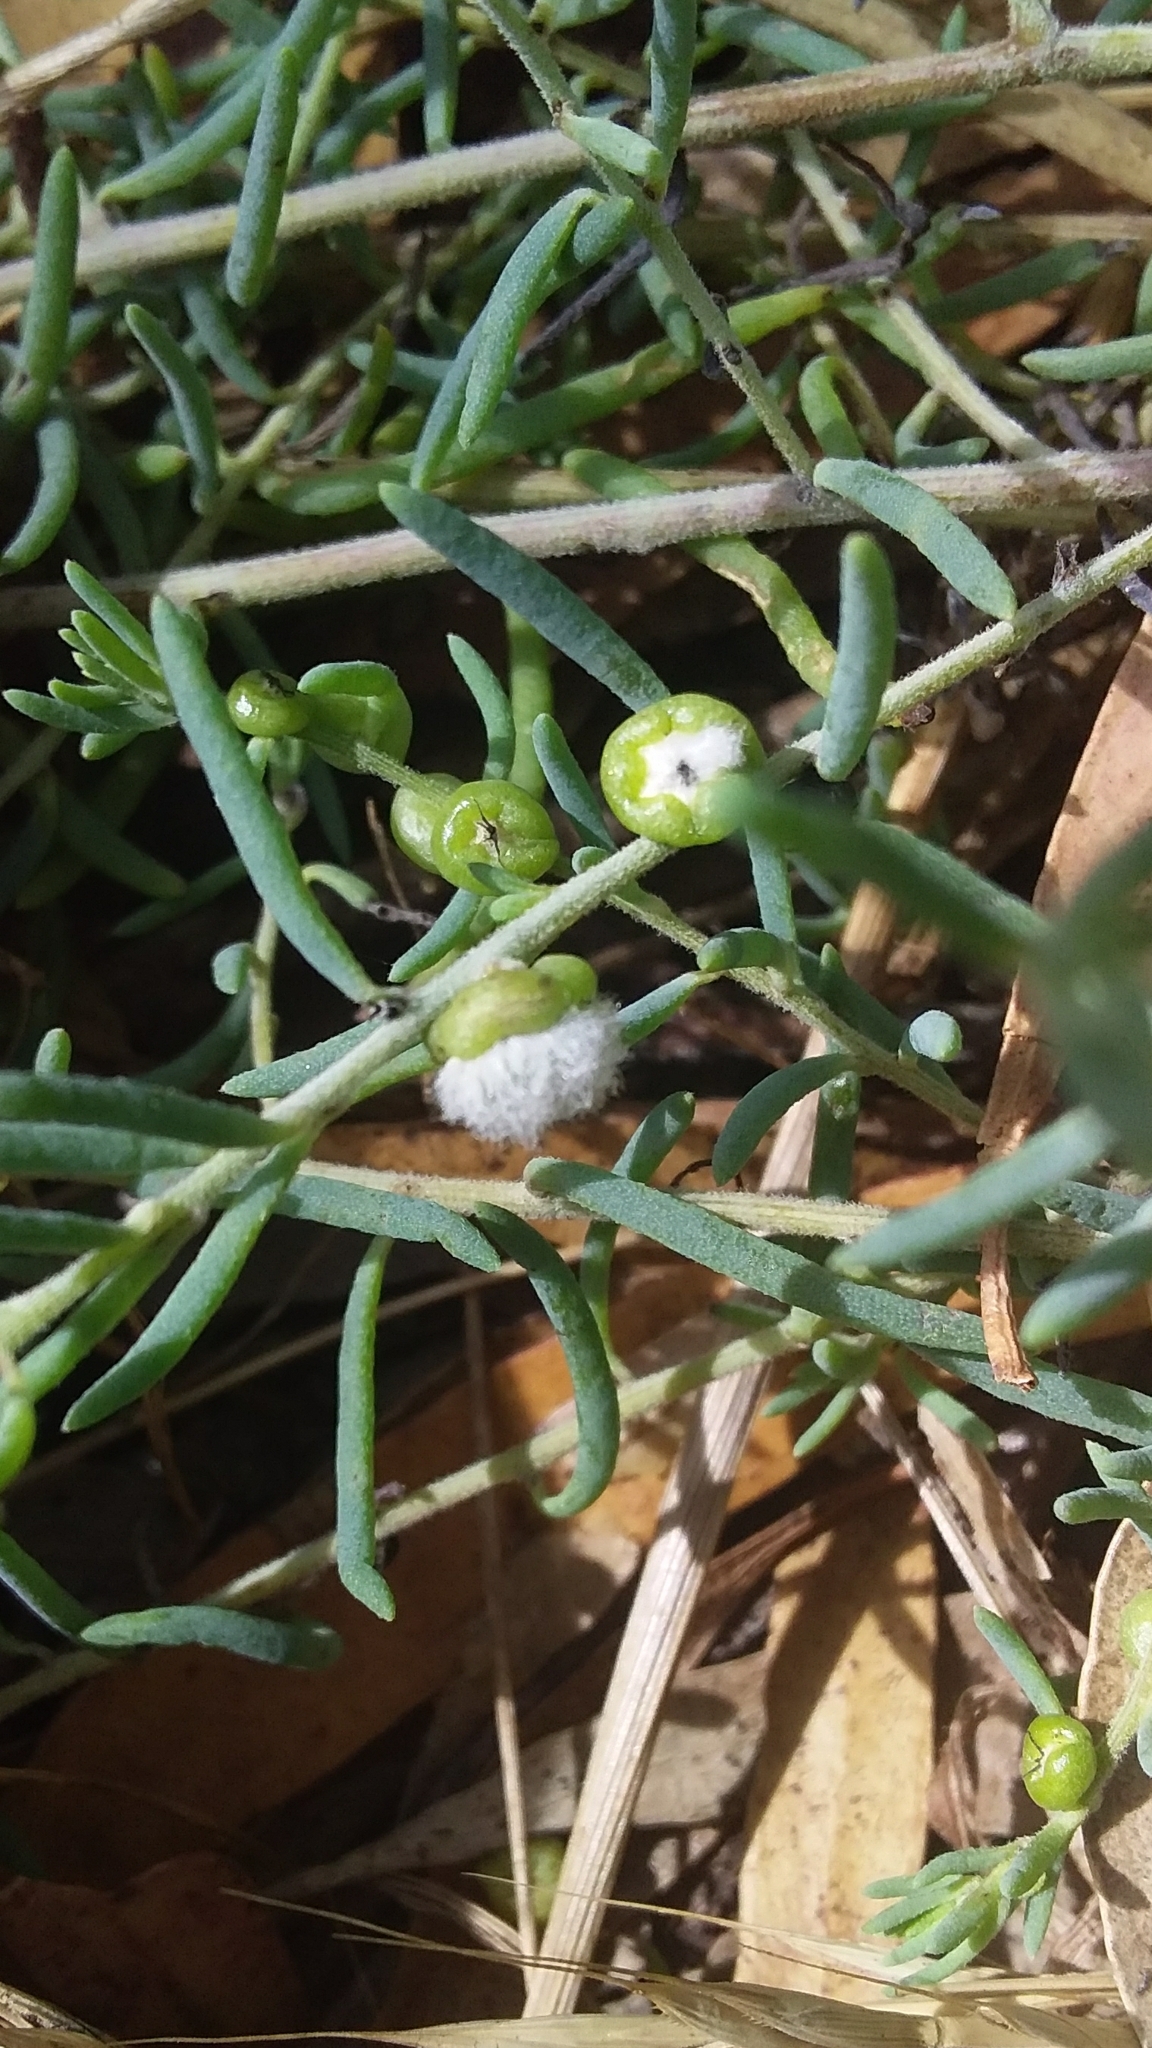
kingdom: Plantae
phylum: Tracheophyta
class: Magnoliopsida
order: Caryophyllales
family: Amaranthaceae
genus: Enchylaena
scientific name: Enchylaena tomentosa
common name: Ruby saltbush
